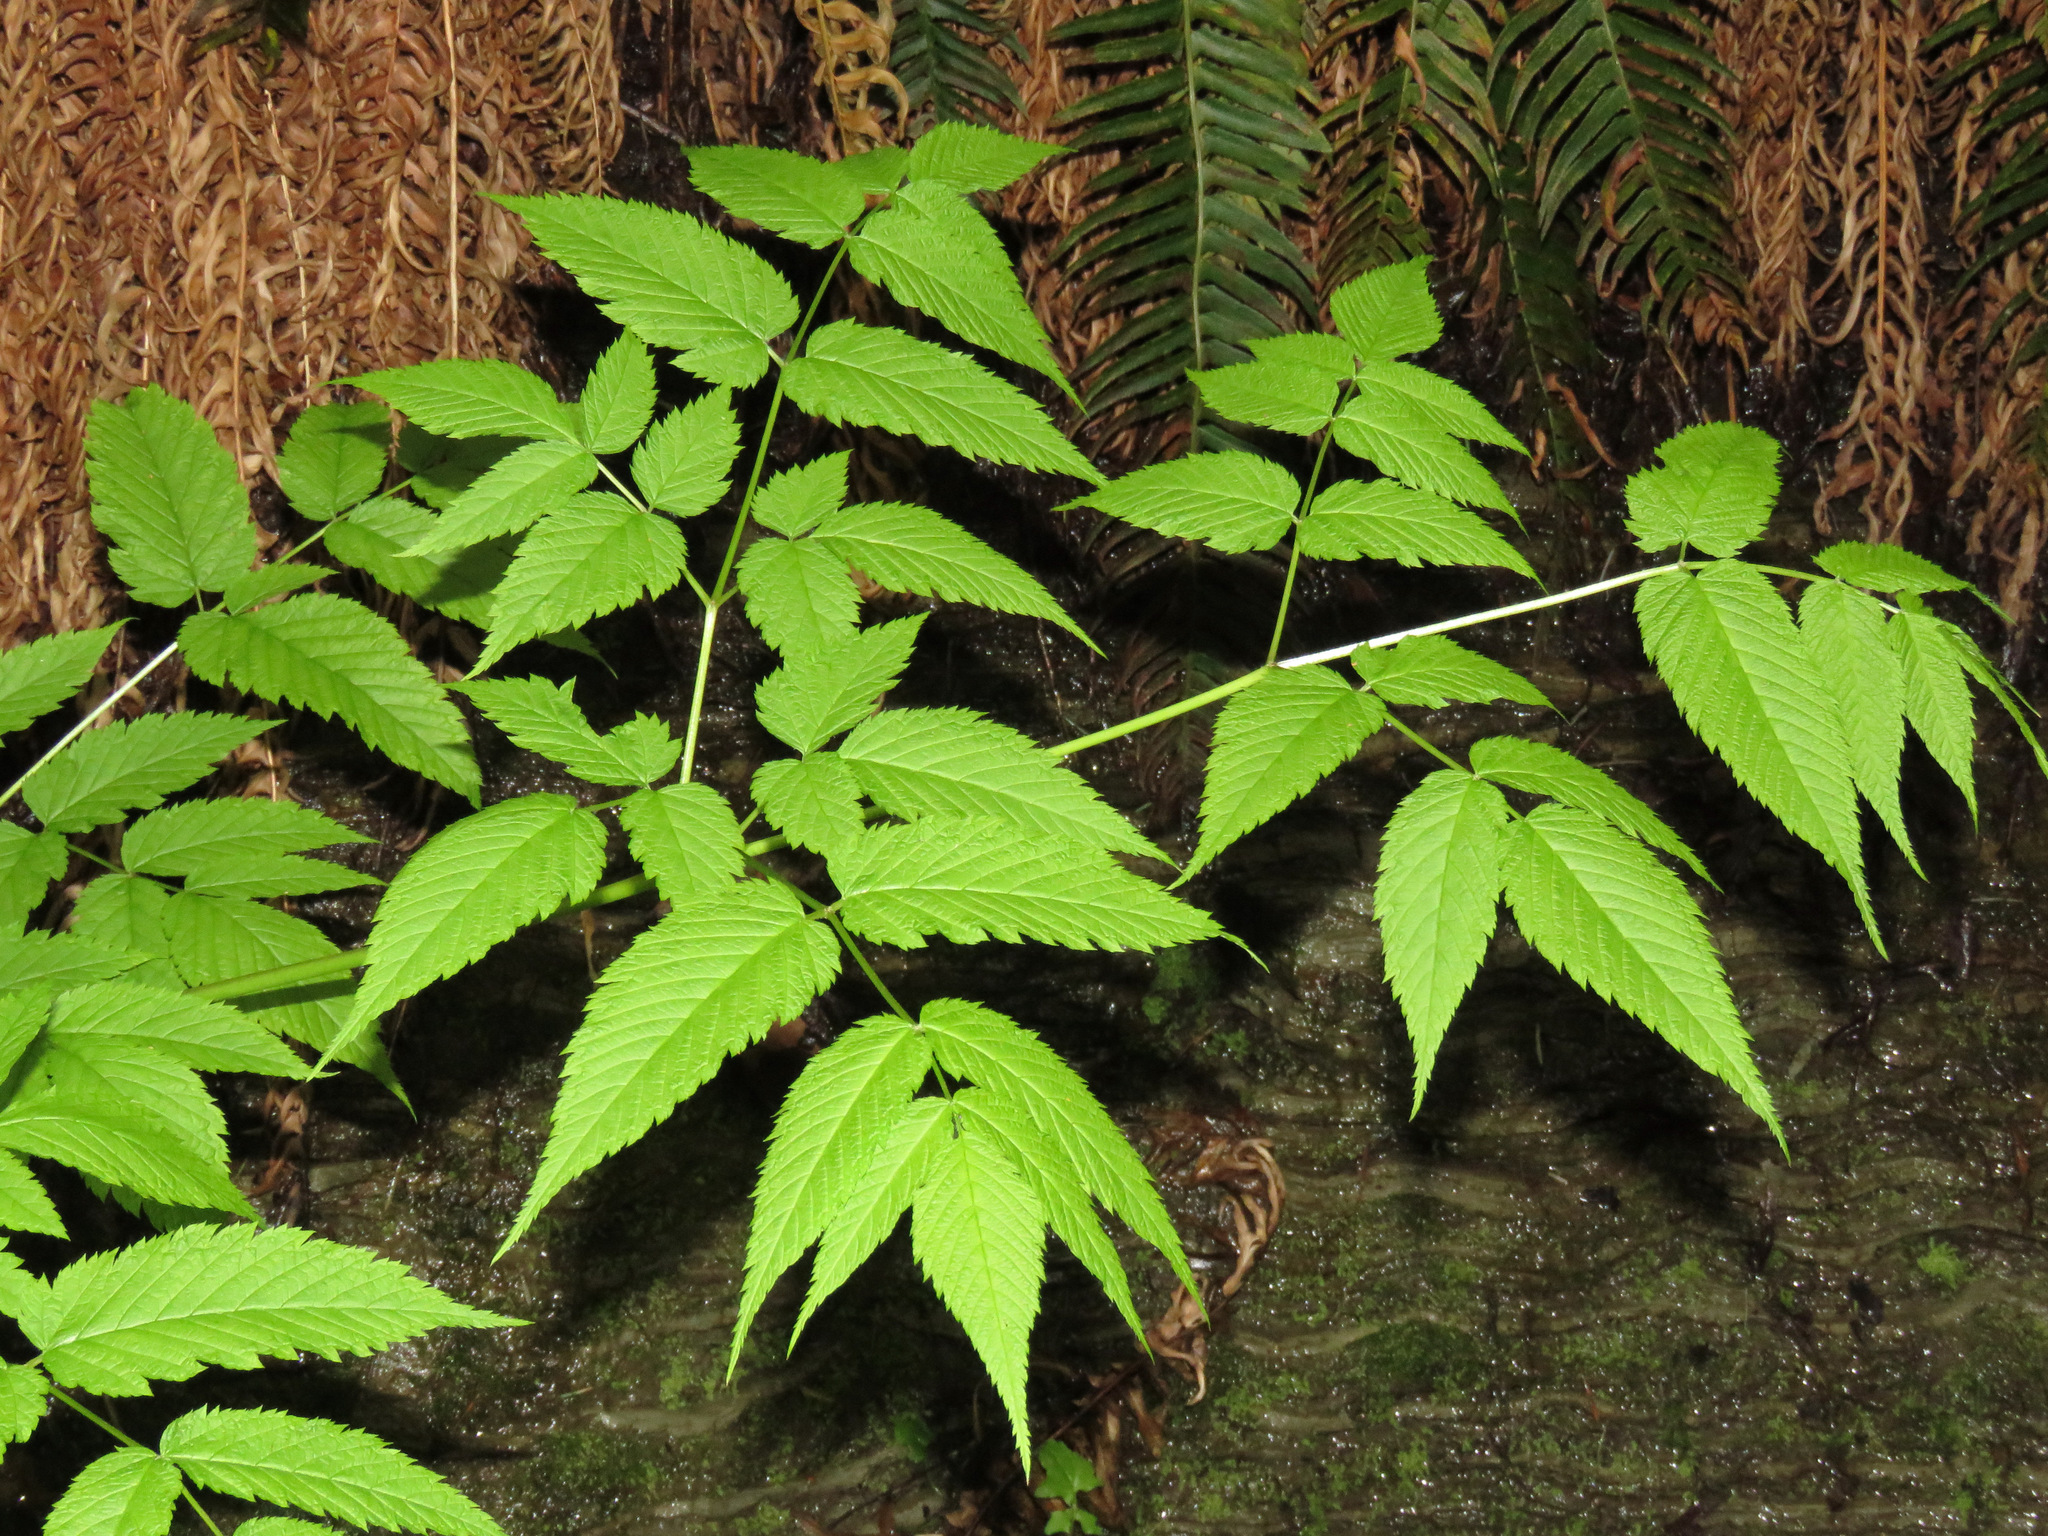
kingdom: Plantae
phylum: Tracheophyta
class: Magnoliopsida
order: Rosales
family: Rosaceae
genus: Aruncus
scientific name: Aruncus dioicus
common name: Buck's-beard
